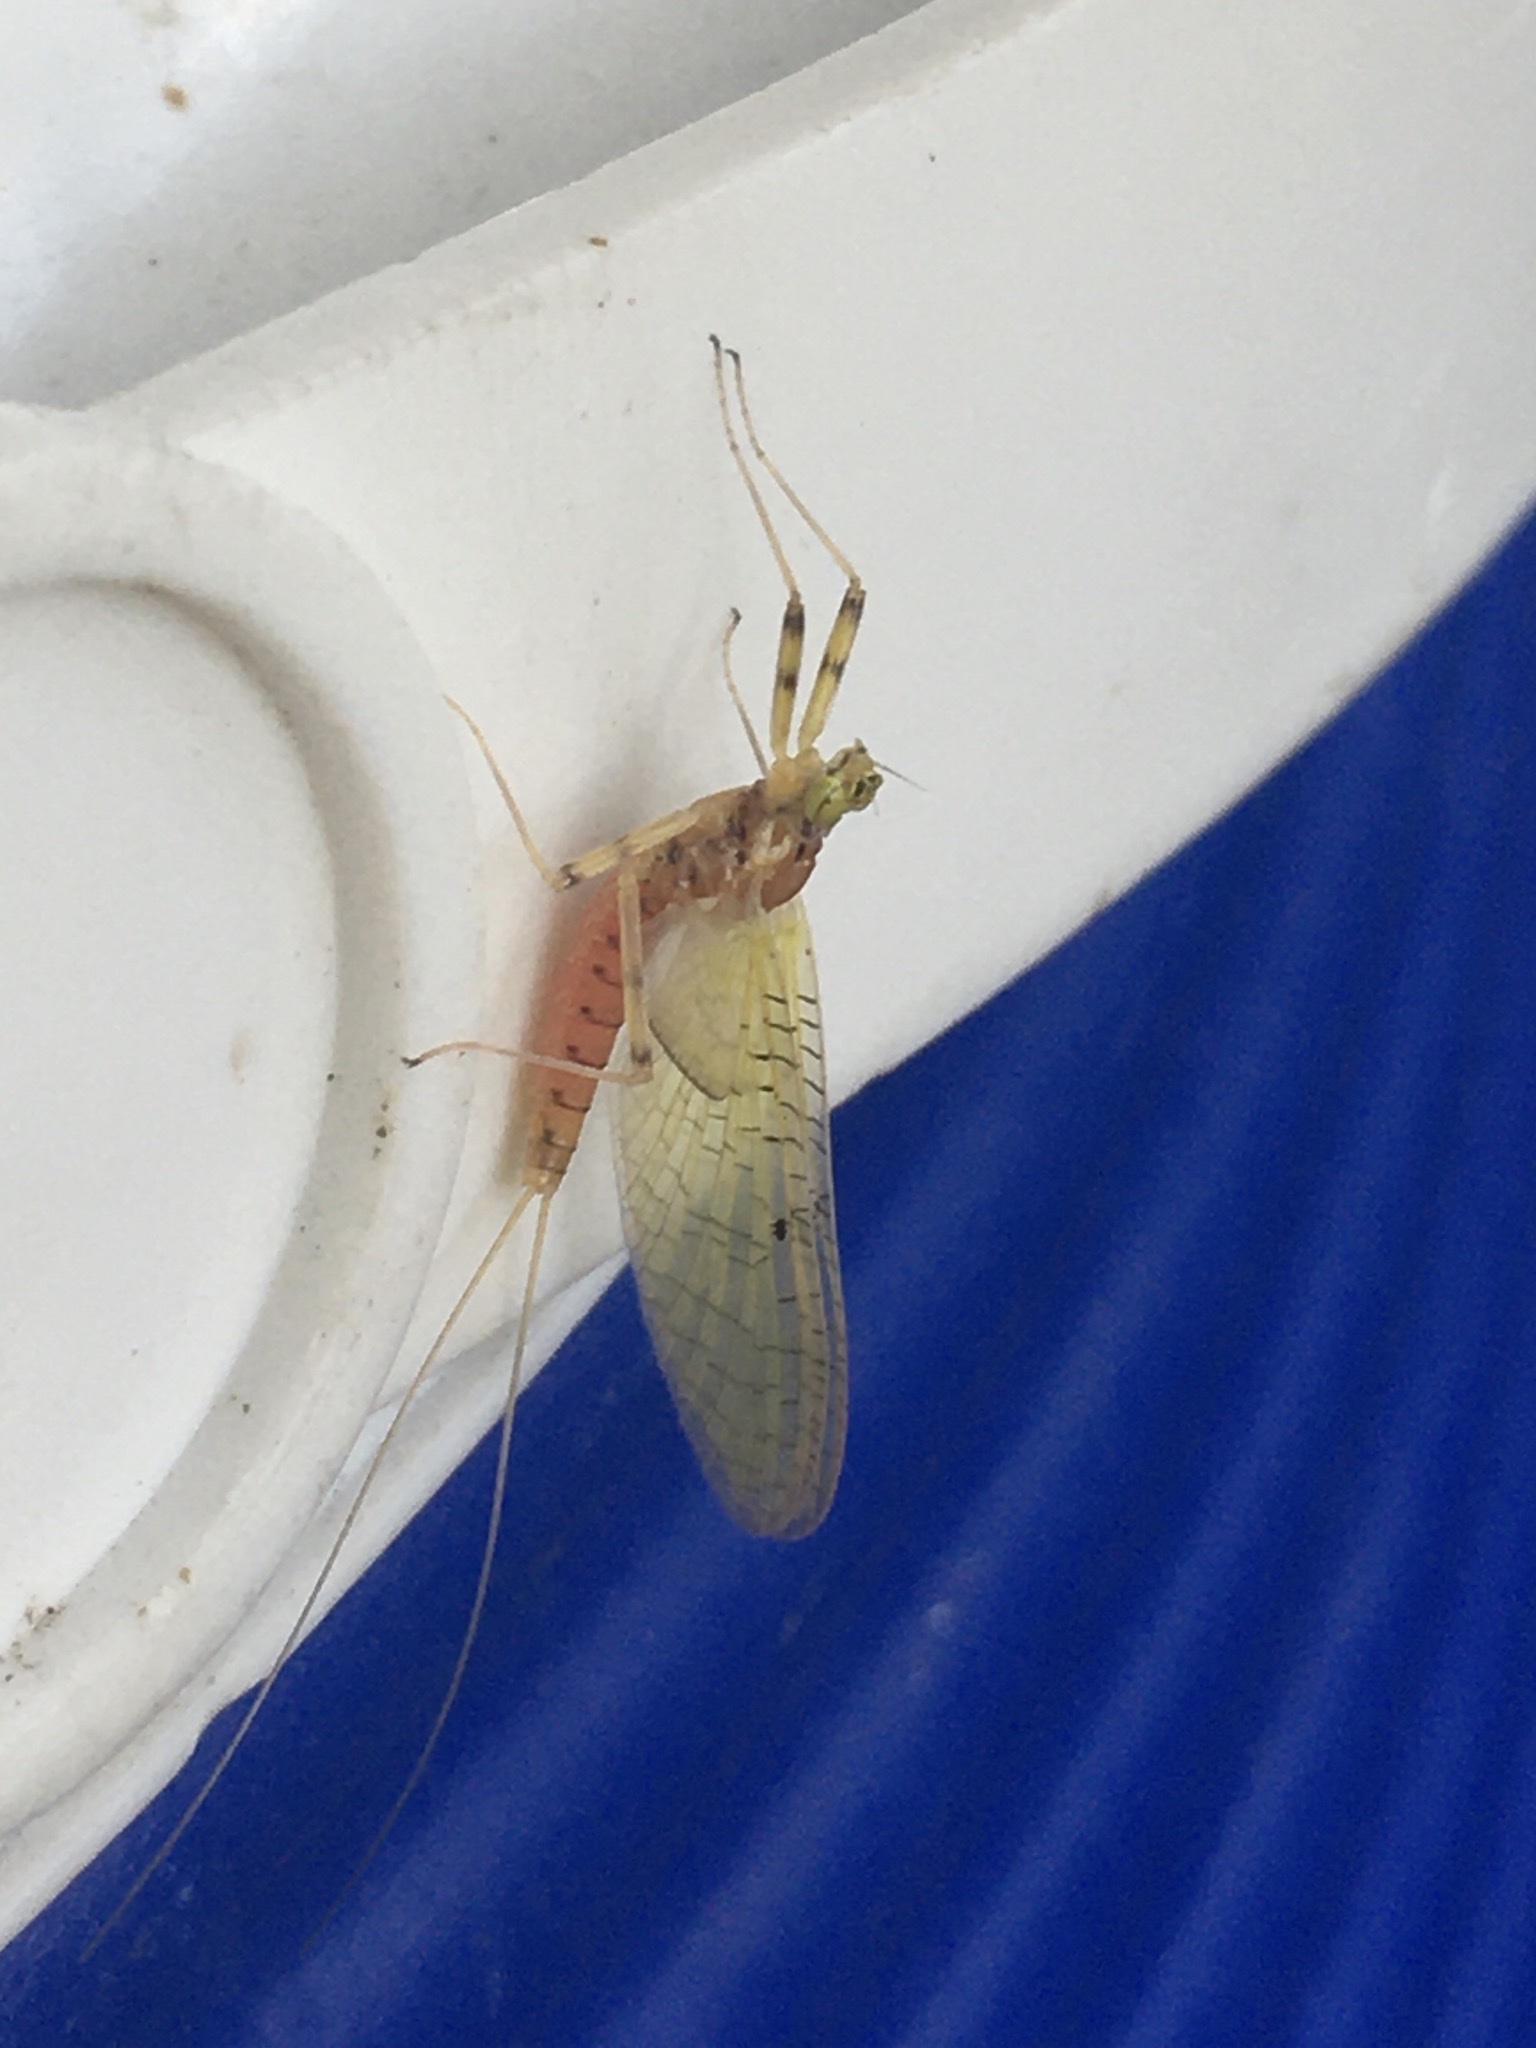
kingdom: Animalia
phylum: Arthropoda
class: Insecta
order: Ephemeroptera
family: Heptageniidae
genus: Stenacron
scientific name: Stenacron interpunctatum
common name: Orange cahill
